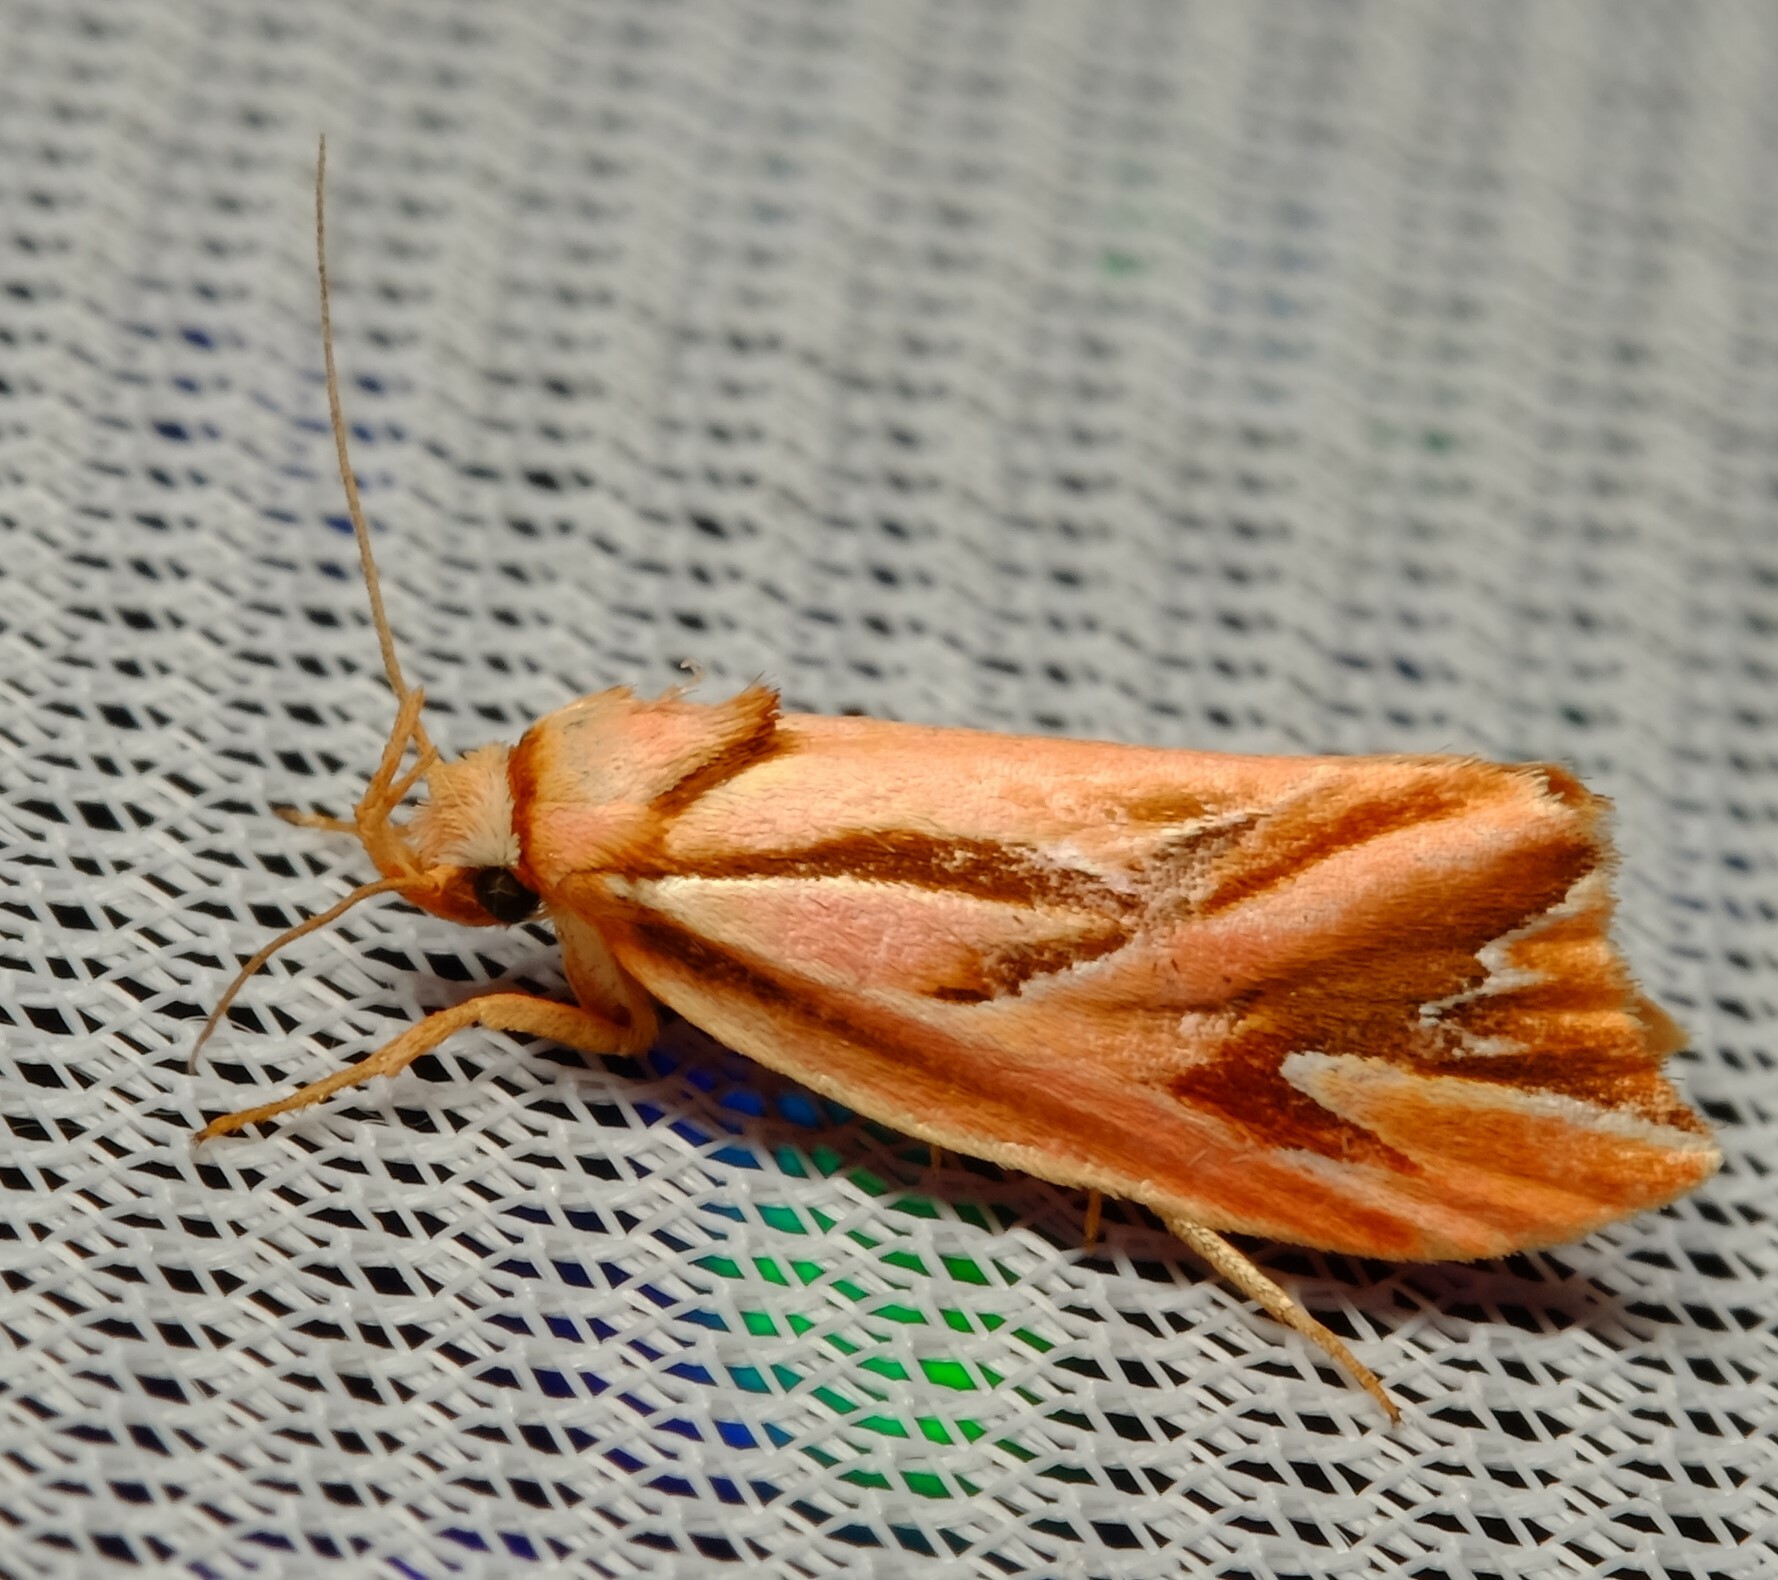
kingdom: Animalia
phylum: Arthropoda
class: Insecta
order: Lepidoptera
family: Depressariidae
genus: Eclecta
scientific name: Eclecta aurorella
